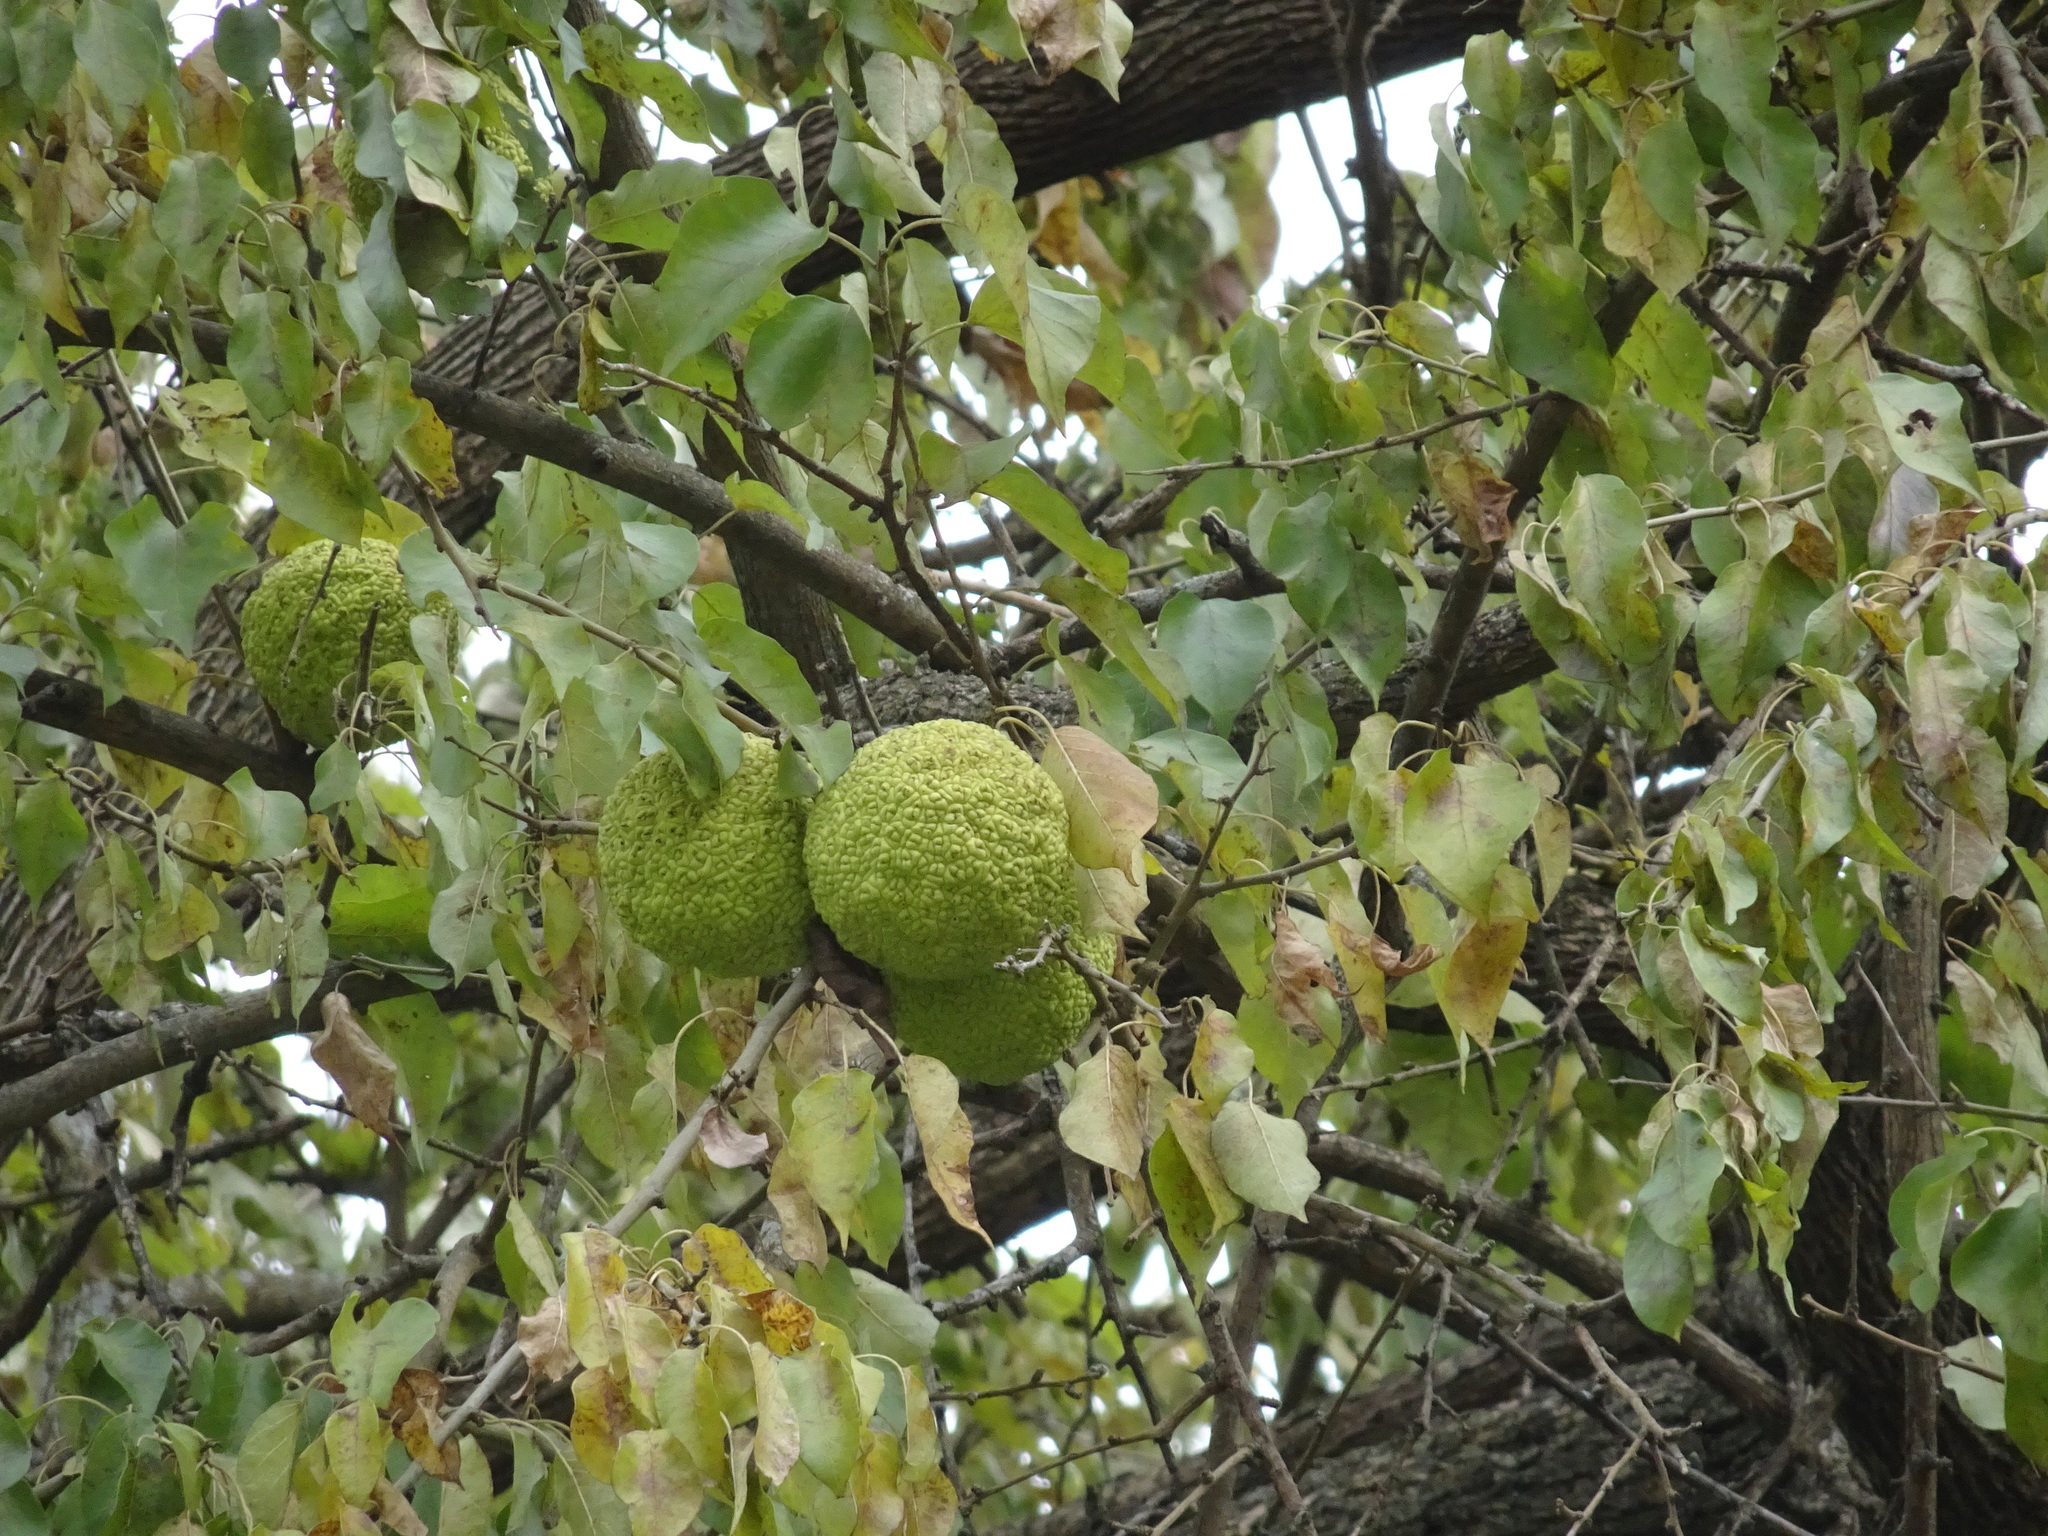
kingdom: Plantae
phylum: Tracheophyta
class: Magnoliopsida
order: Rosales
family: Moraceae
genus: Maclura
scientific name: Maclura pomifera
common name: Osage-orange
